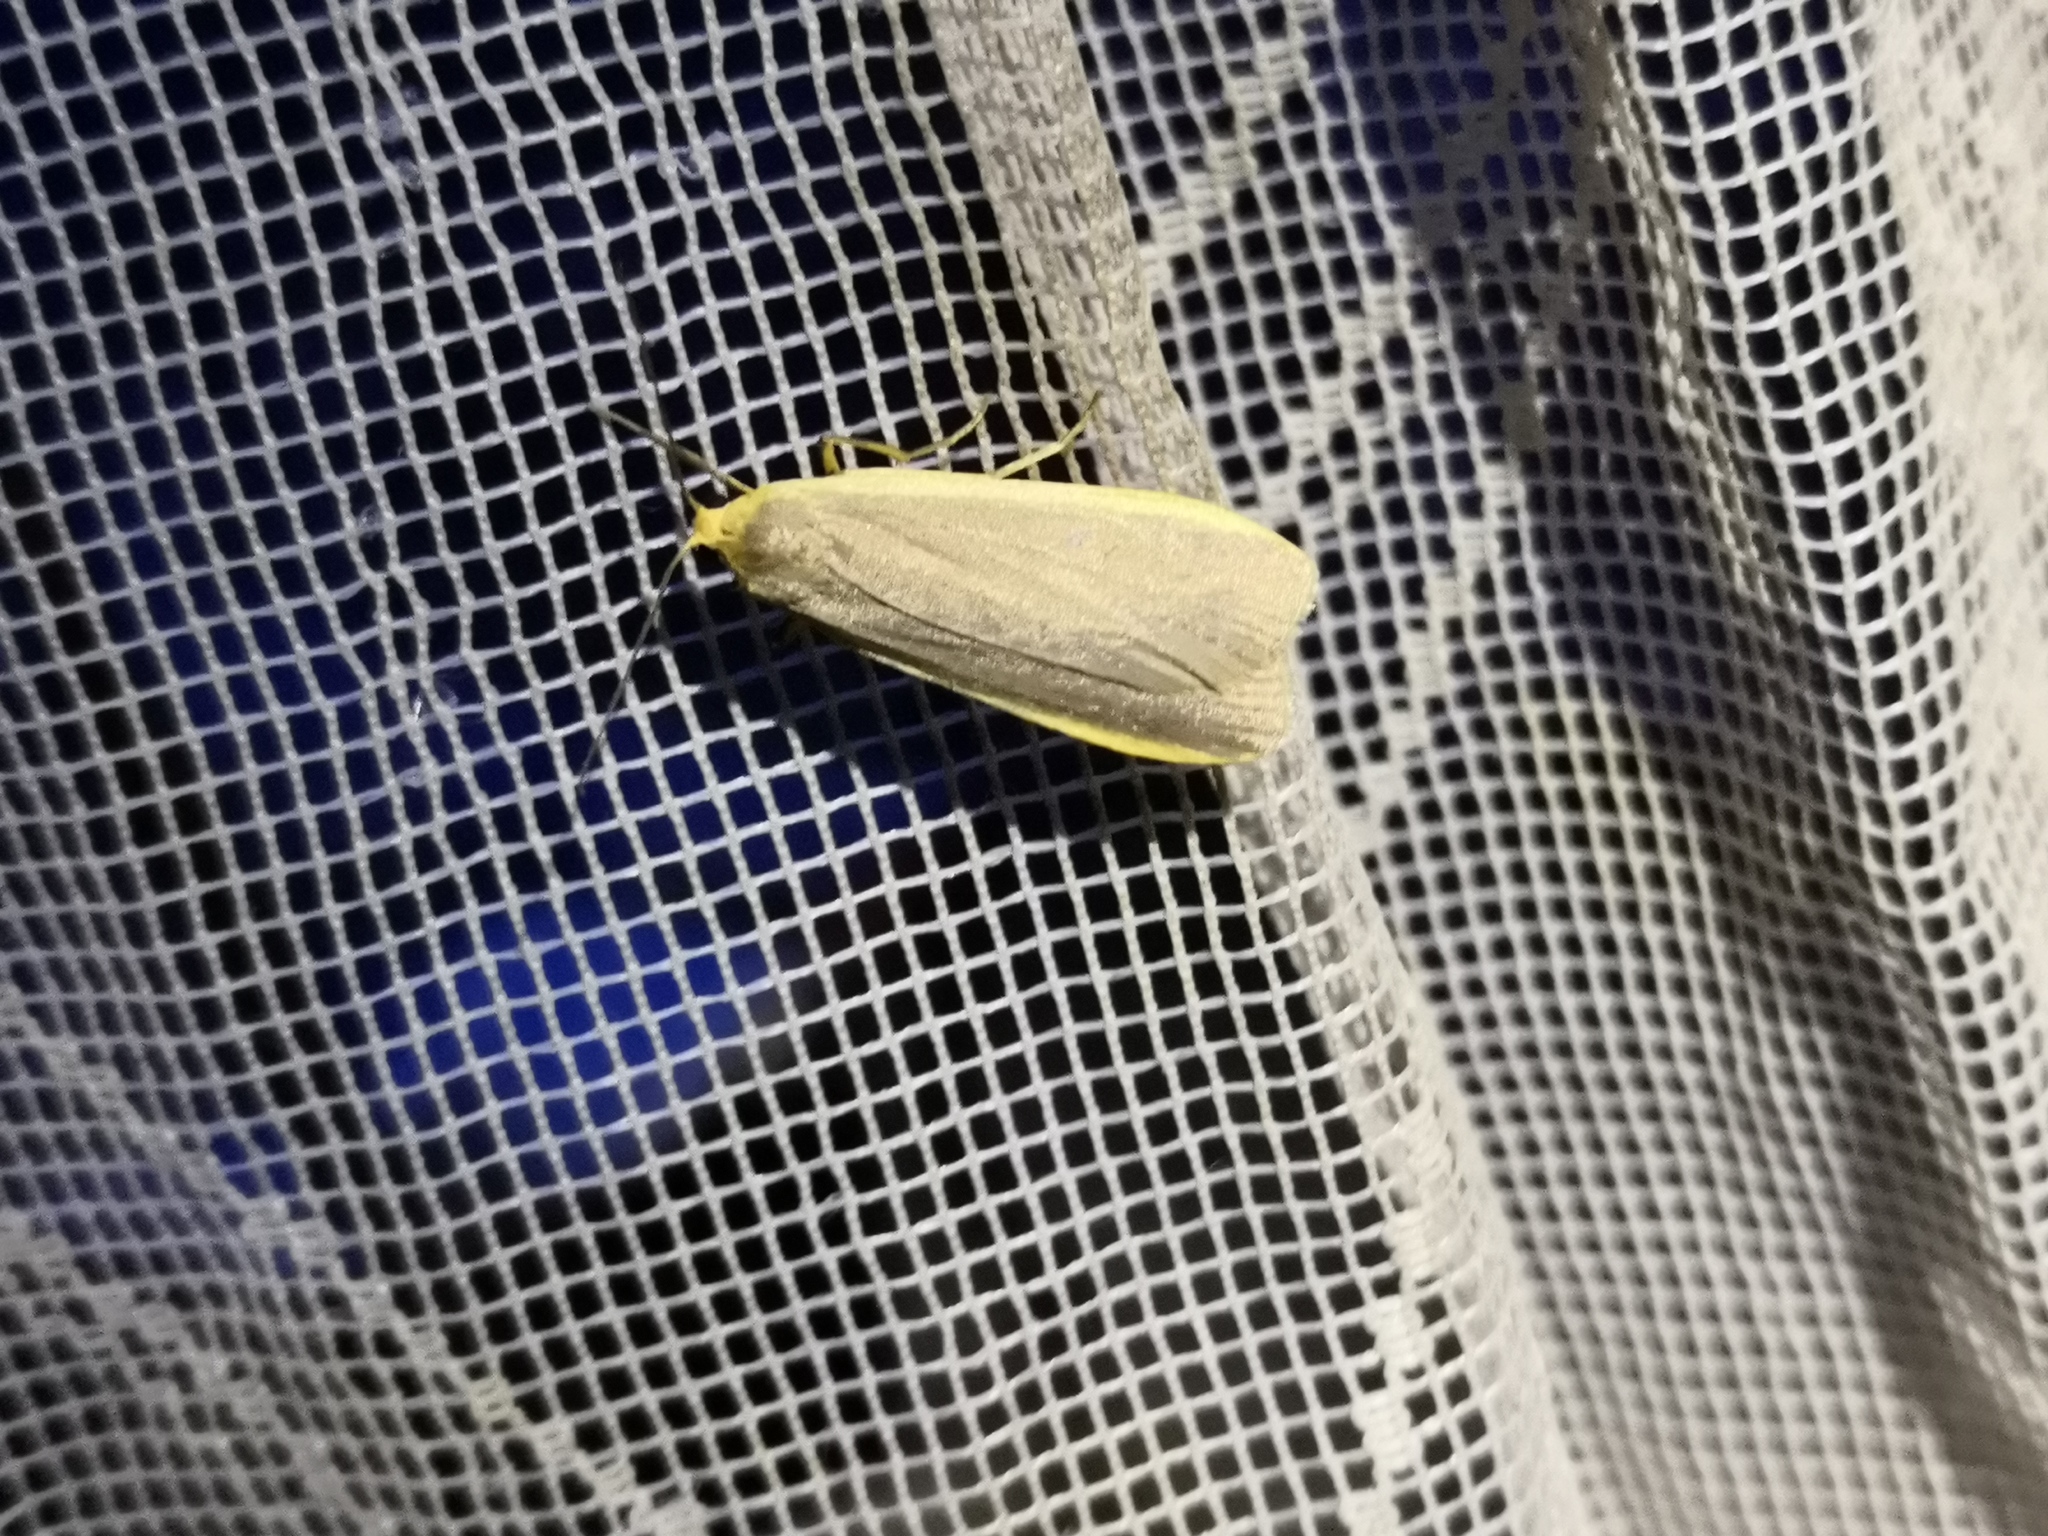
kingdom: Animalia
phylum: Arthropoda
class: Insecta
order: Lepidoptera
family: Erebidae
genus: Nyea
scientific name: Nyea lurideola
